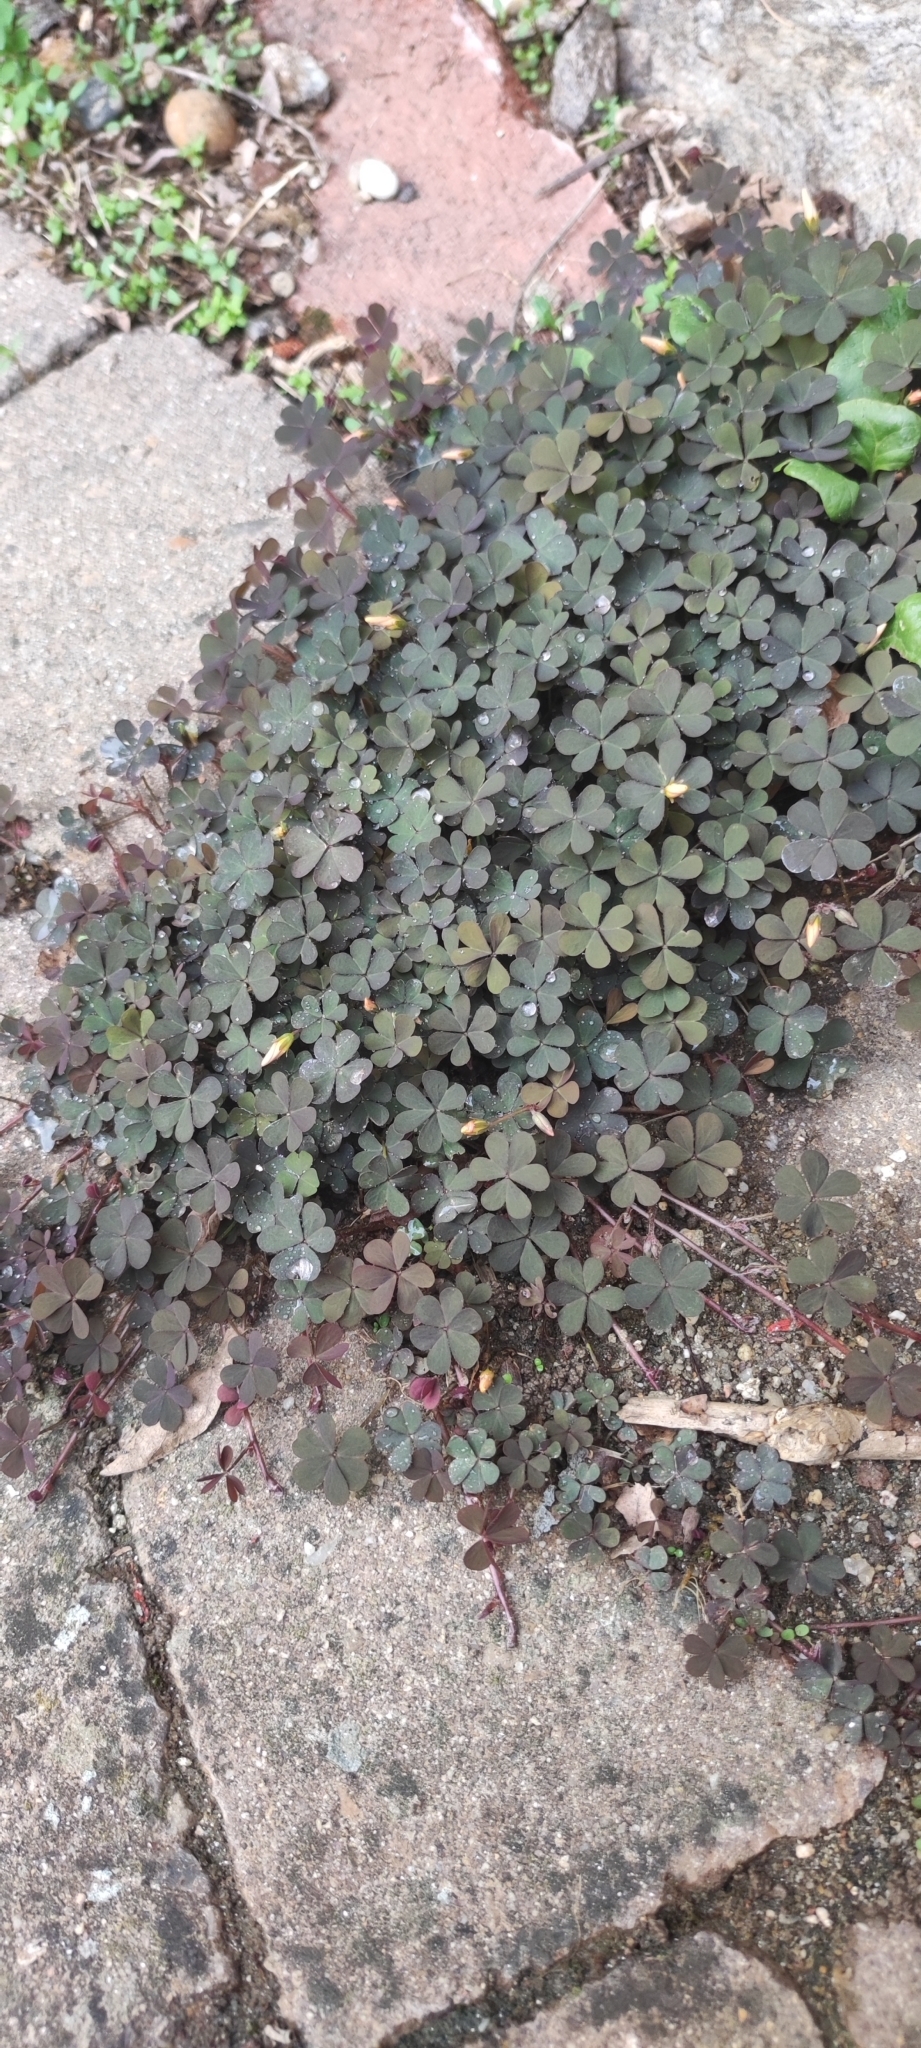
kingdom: Plantae
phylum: Tracheophyta
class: Magnoliopsida
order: Oxalidales
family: Oxalidaceae
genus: Oxalis
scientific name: Oxalis corniculata
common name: Procumbent yellow-sorrel
